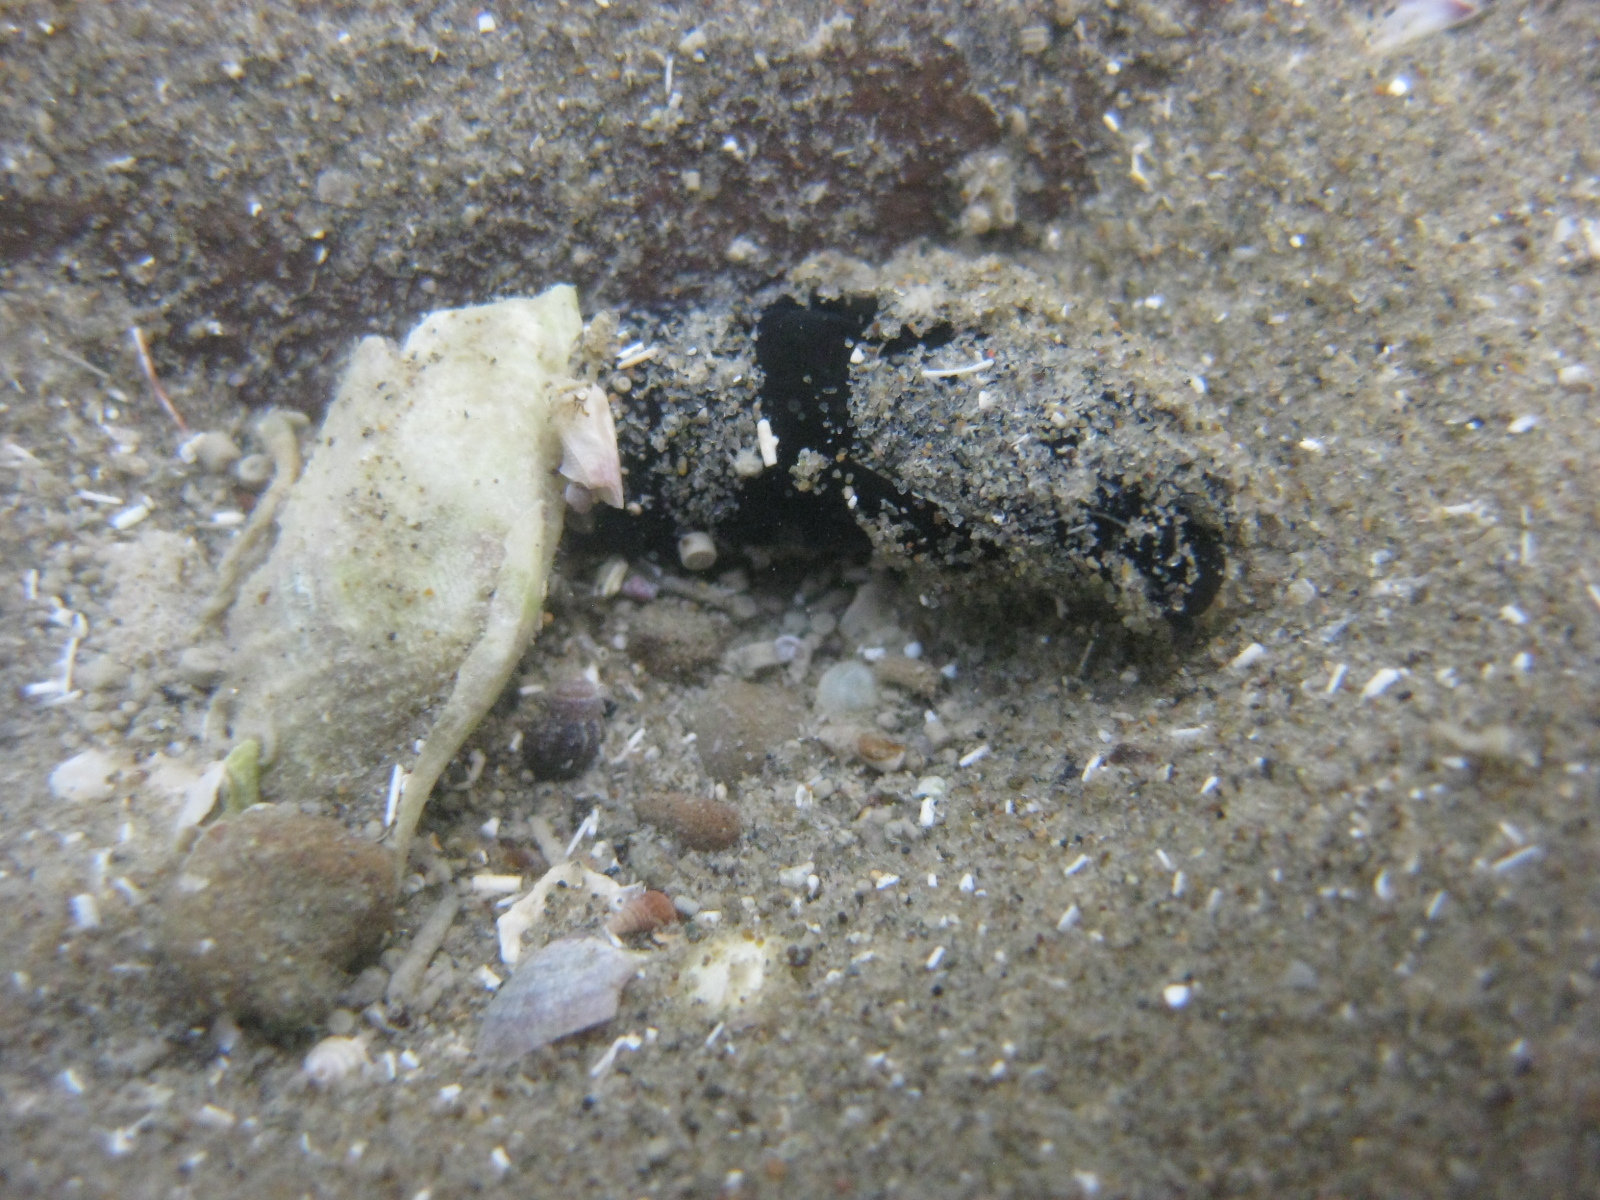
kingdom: Animalia
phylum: Mollusca
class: Gastropoda
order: Cephalaspidea
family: Aglajidae
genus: Melanochlamys
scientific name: Melanochlamys cylindrica
